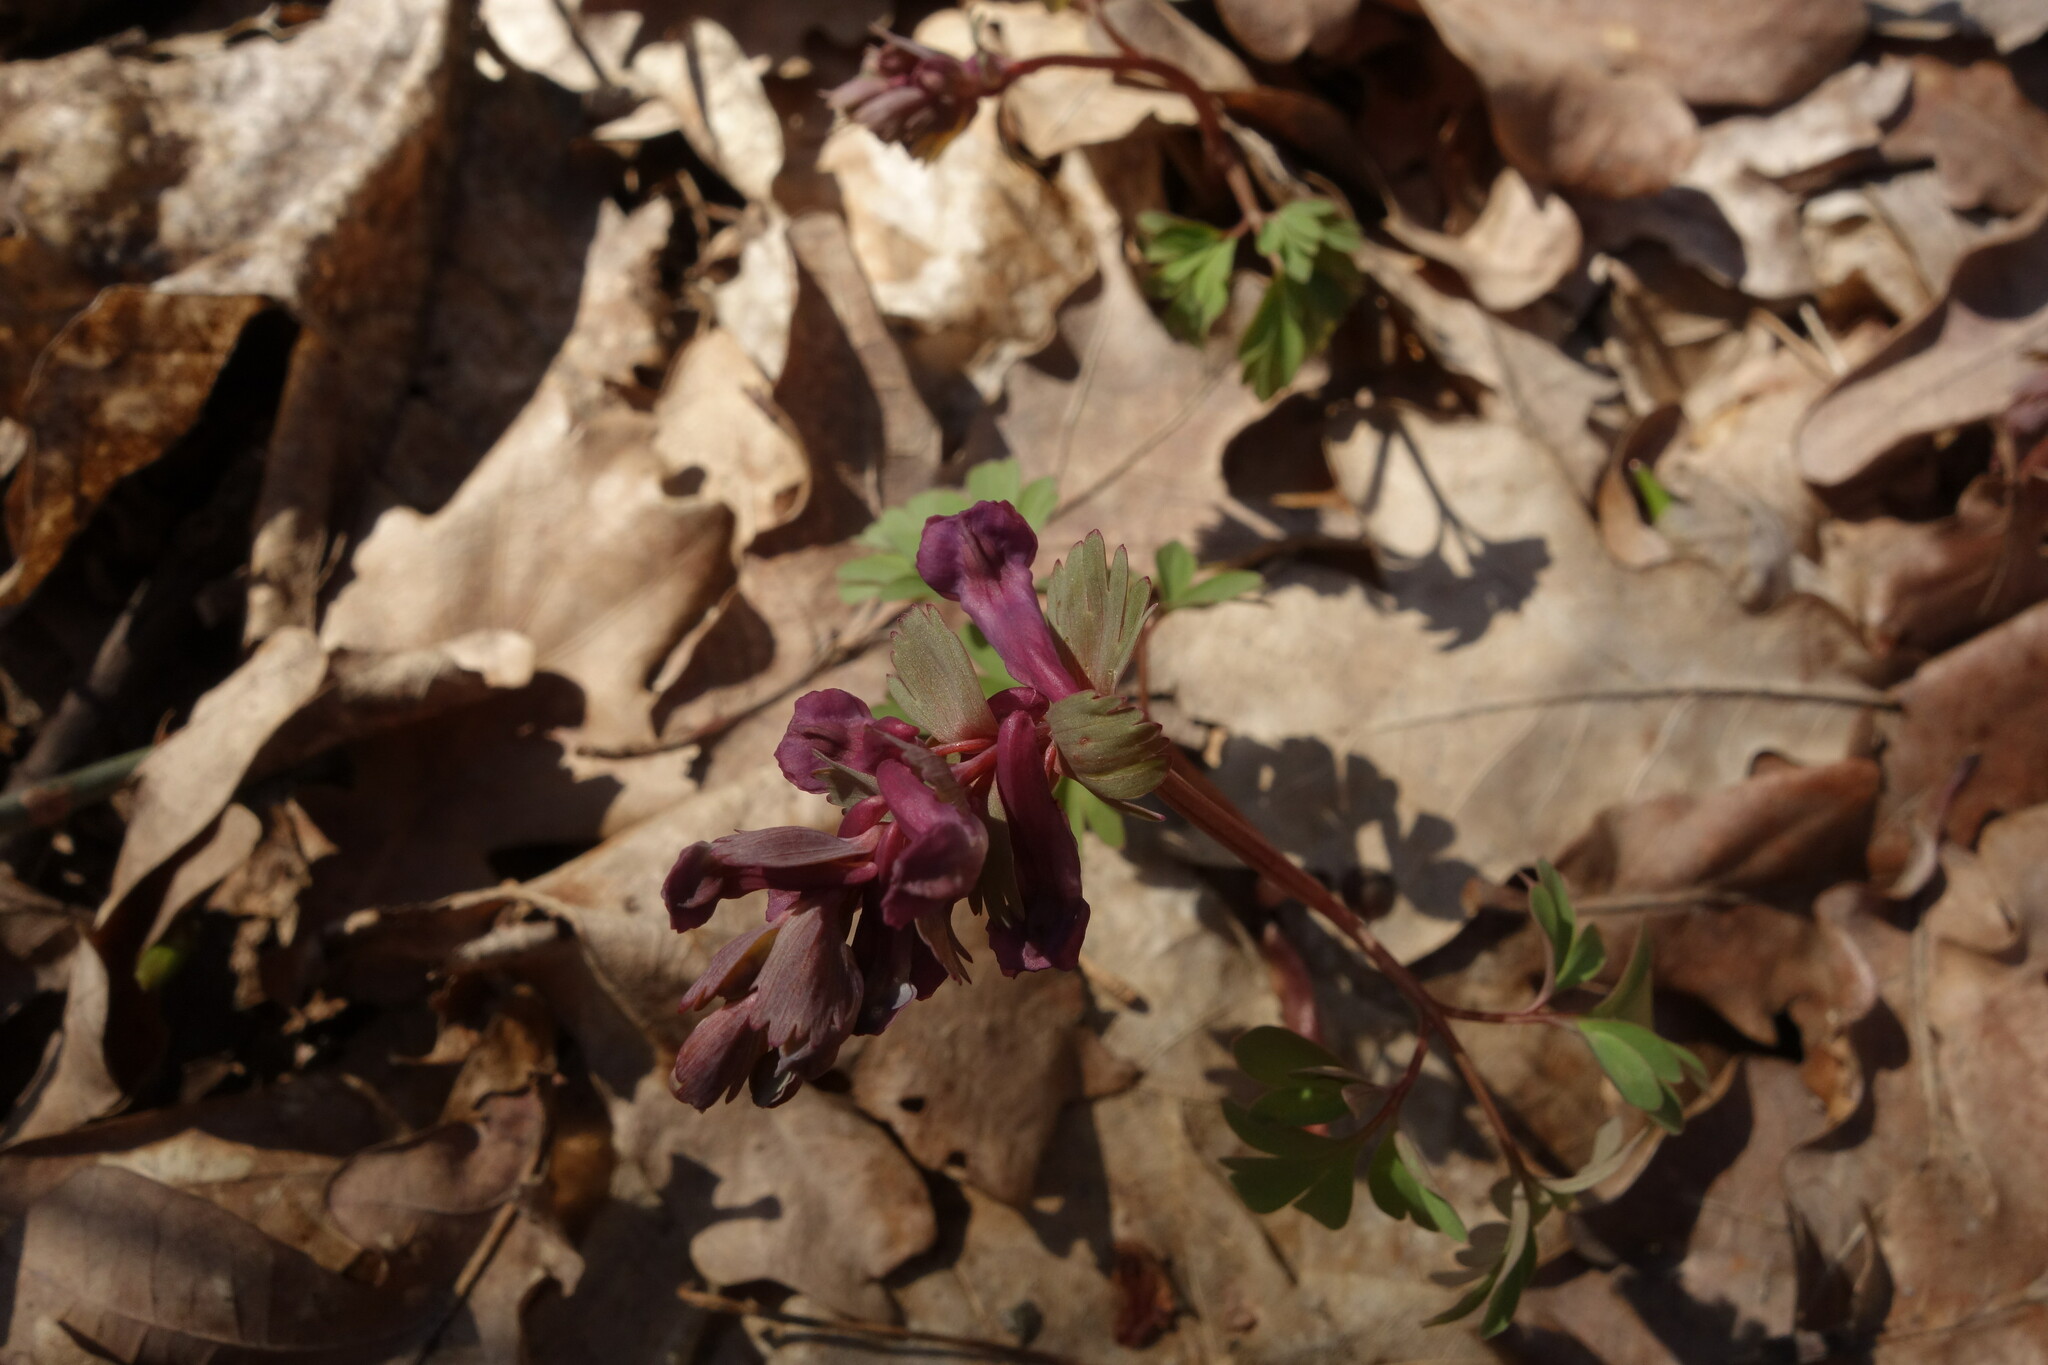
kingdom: Plantae
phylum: Tracheophyta
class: Magnoliopsida
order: Ranunculales
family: Papaveraceae
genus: Corydalis
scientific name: Corydalis solida
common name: Bird-in-a-bush
